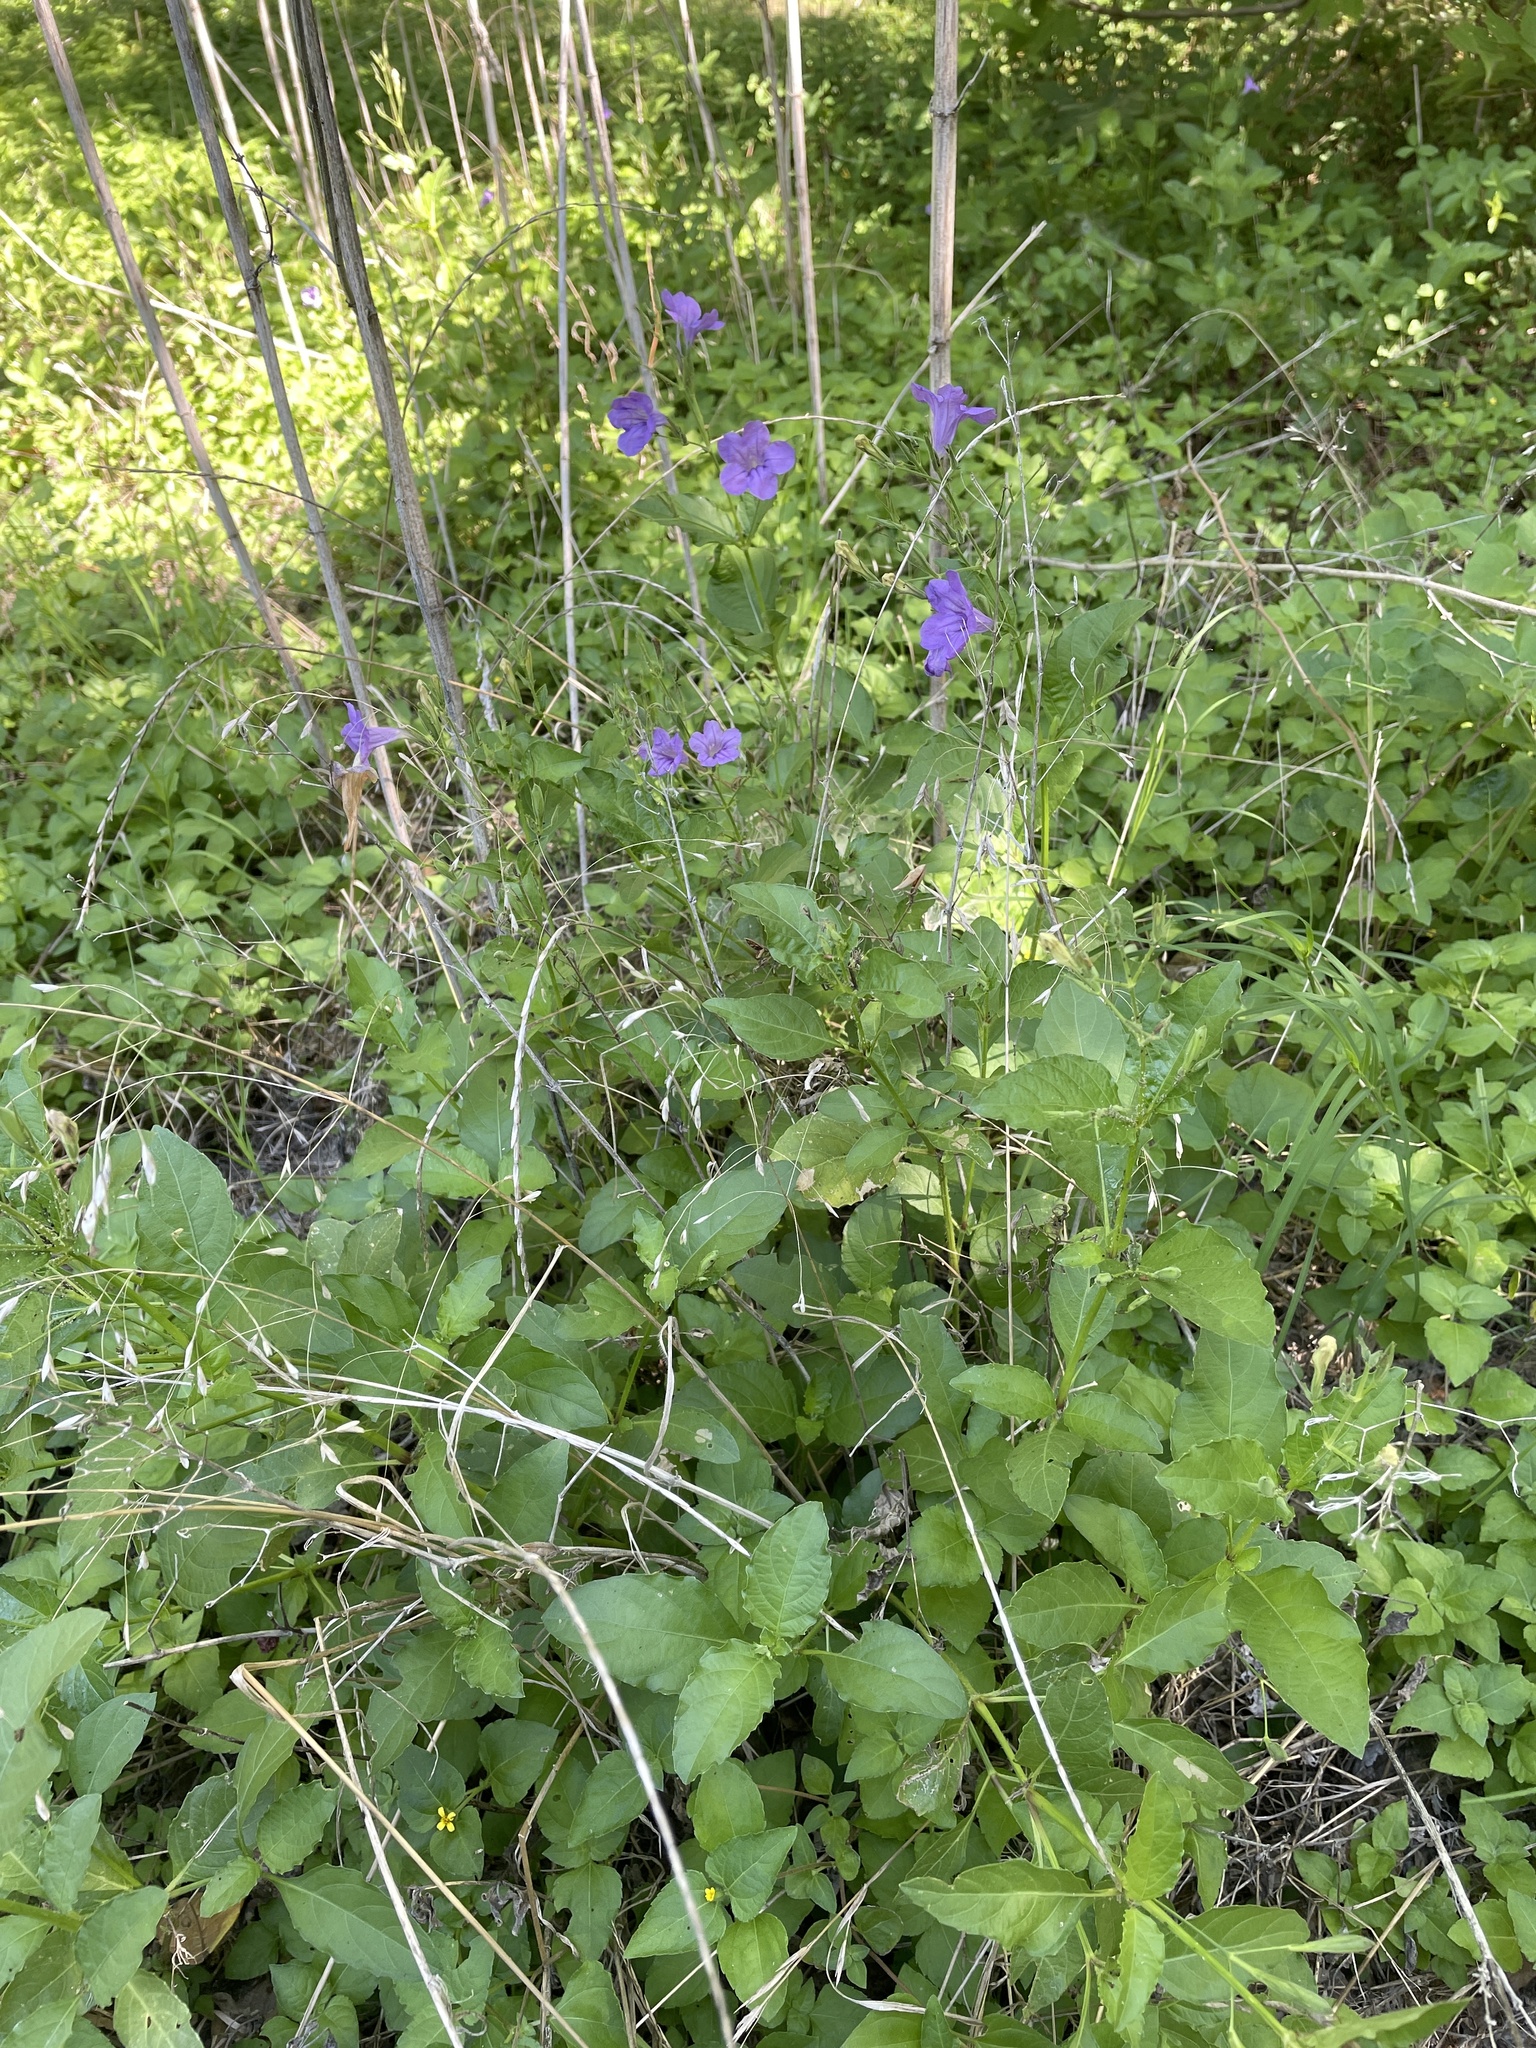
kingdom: Plantae
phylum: Tracheophyta
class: Magnoliopsida
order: Lamiales
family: Acanthaceae
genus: Ruellia
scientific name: Ruellia ciliatiflora
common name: Hairyflower wild petunia
